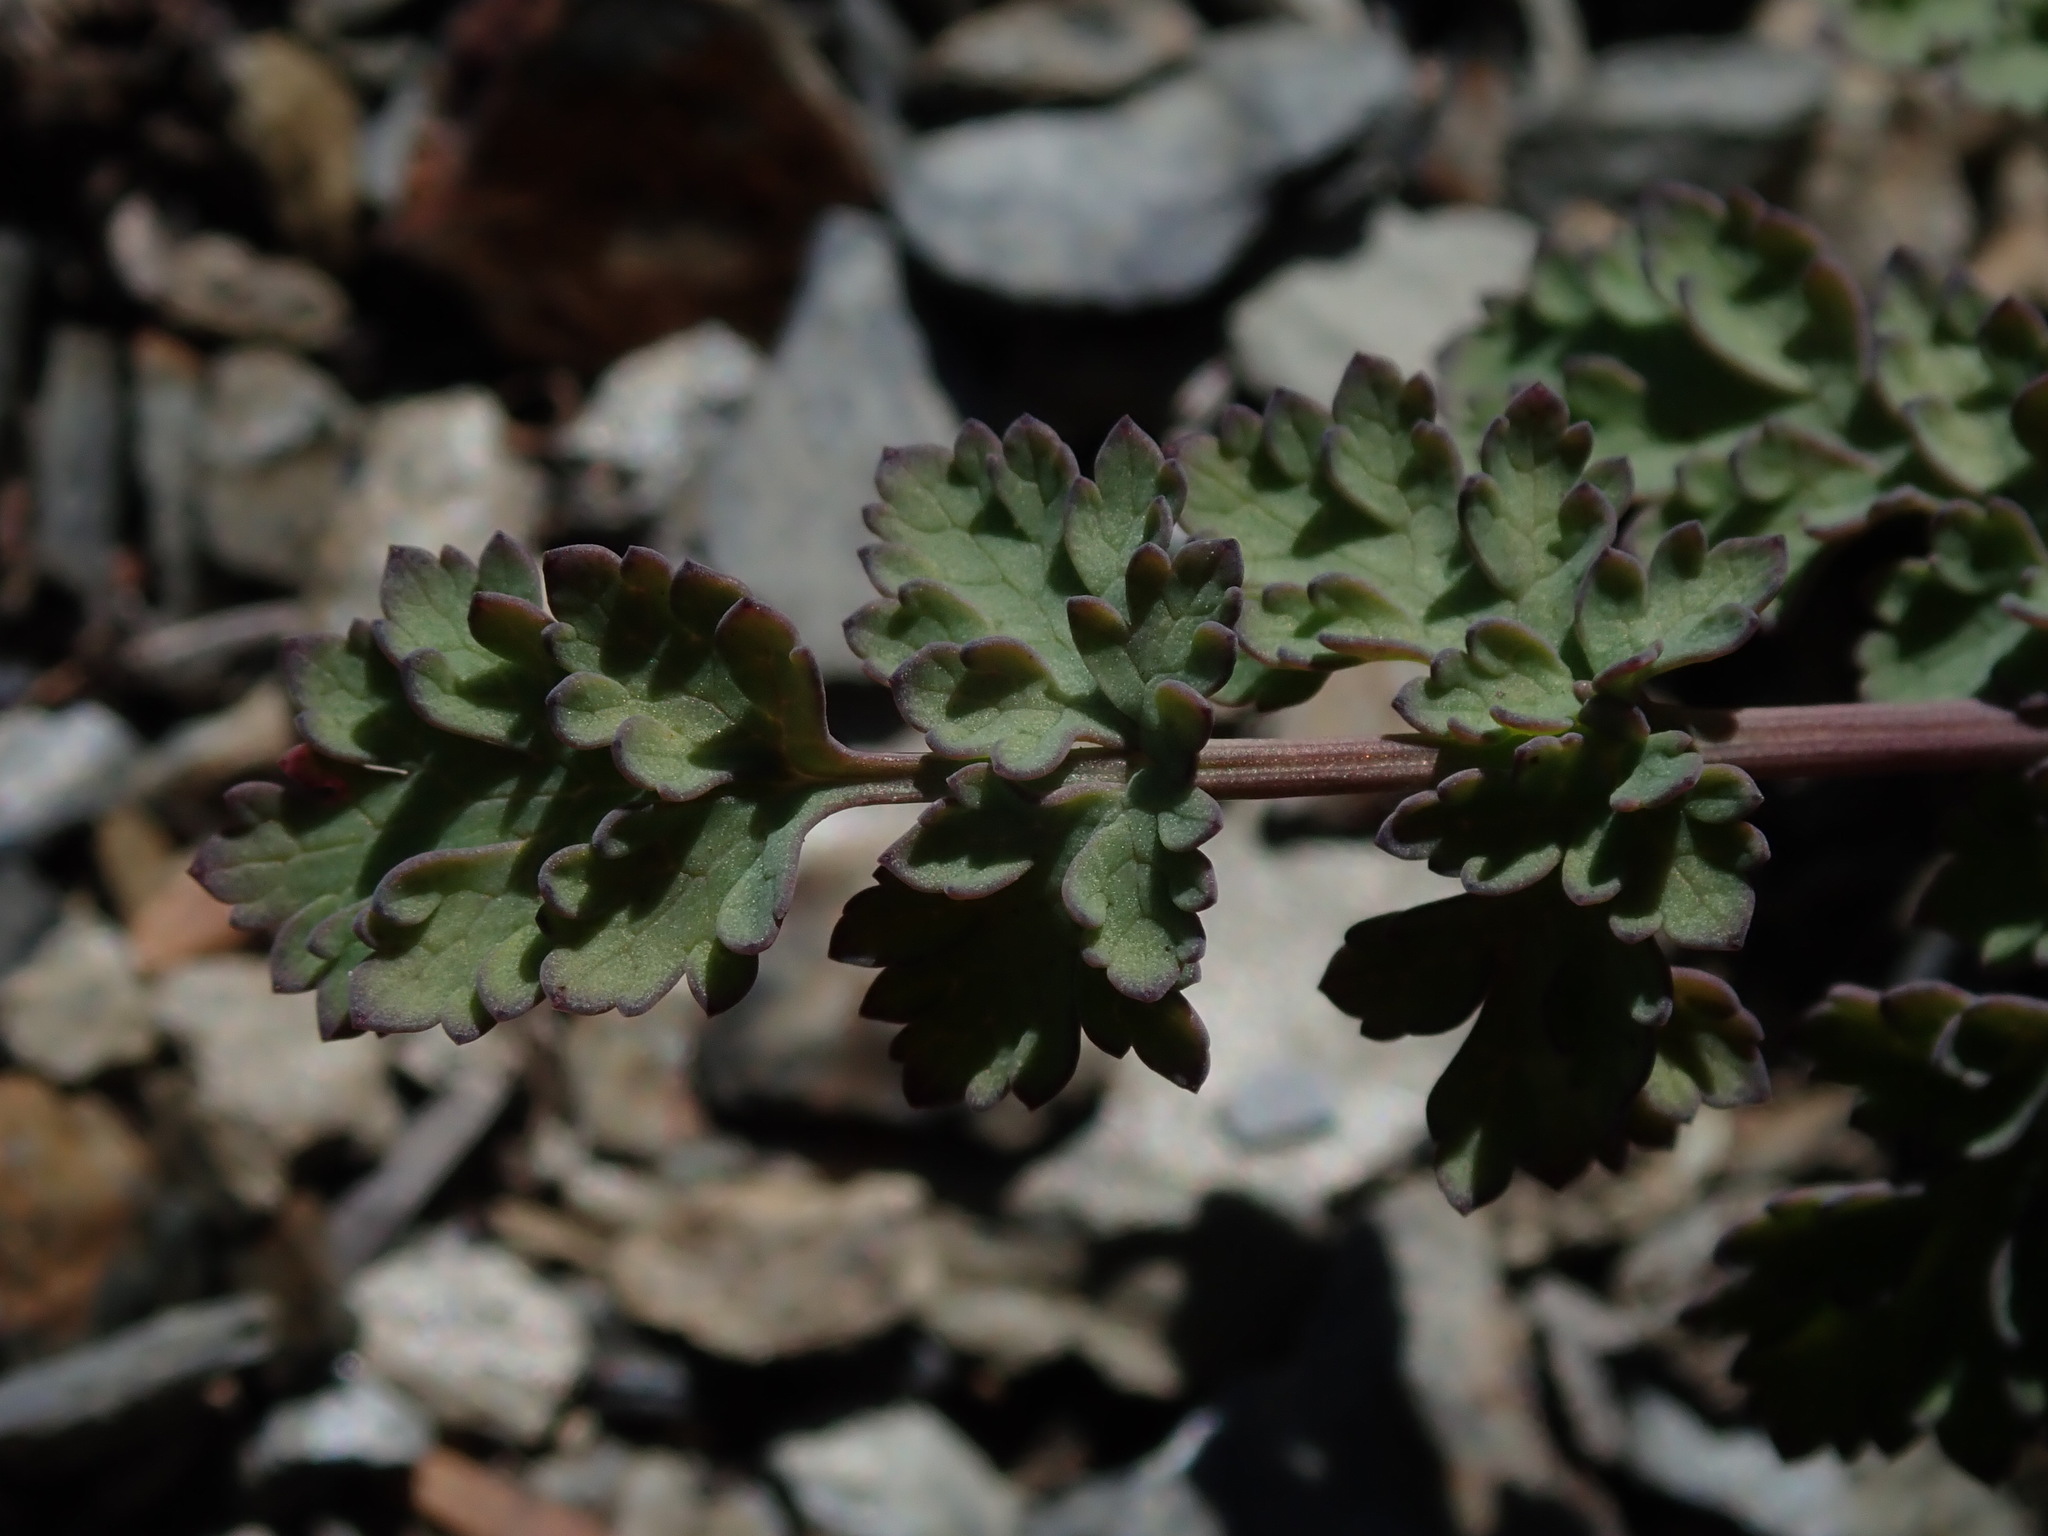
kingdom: Plantae
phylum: Tracheophyta
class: Magnoliopsida
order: Apiales
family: Apiaceae
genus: Lomatium
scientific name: Lomatium martindalei
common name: Cascade desert-parsley
